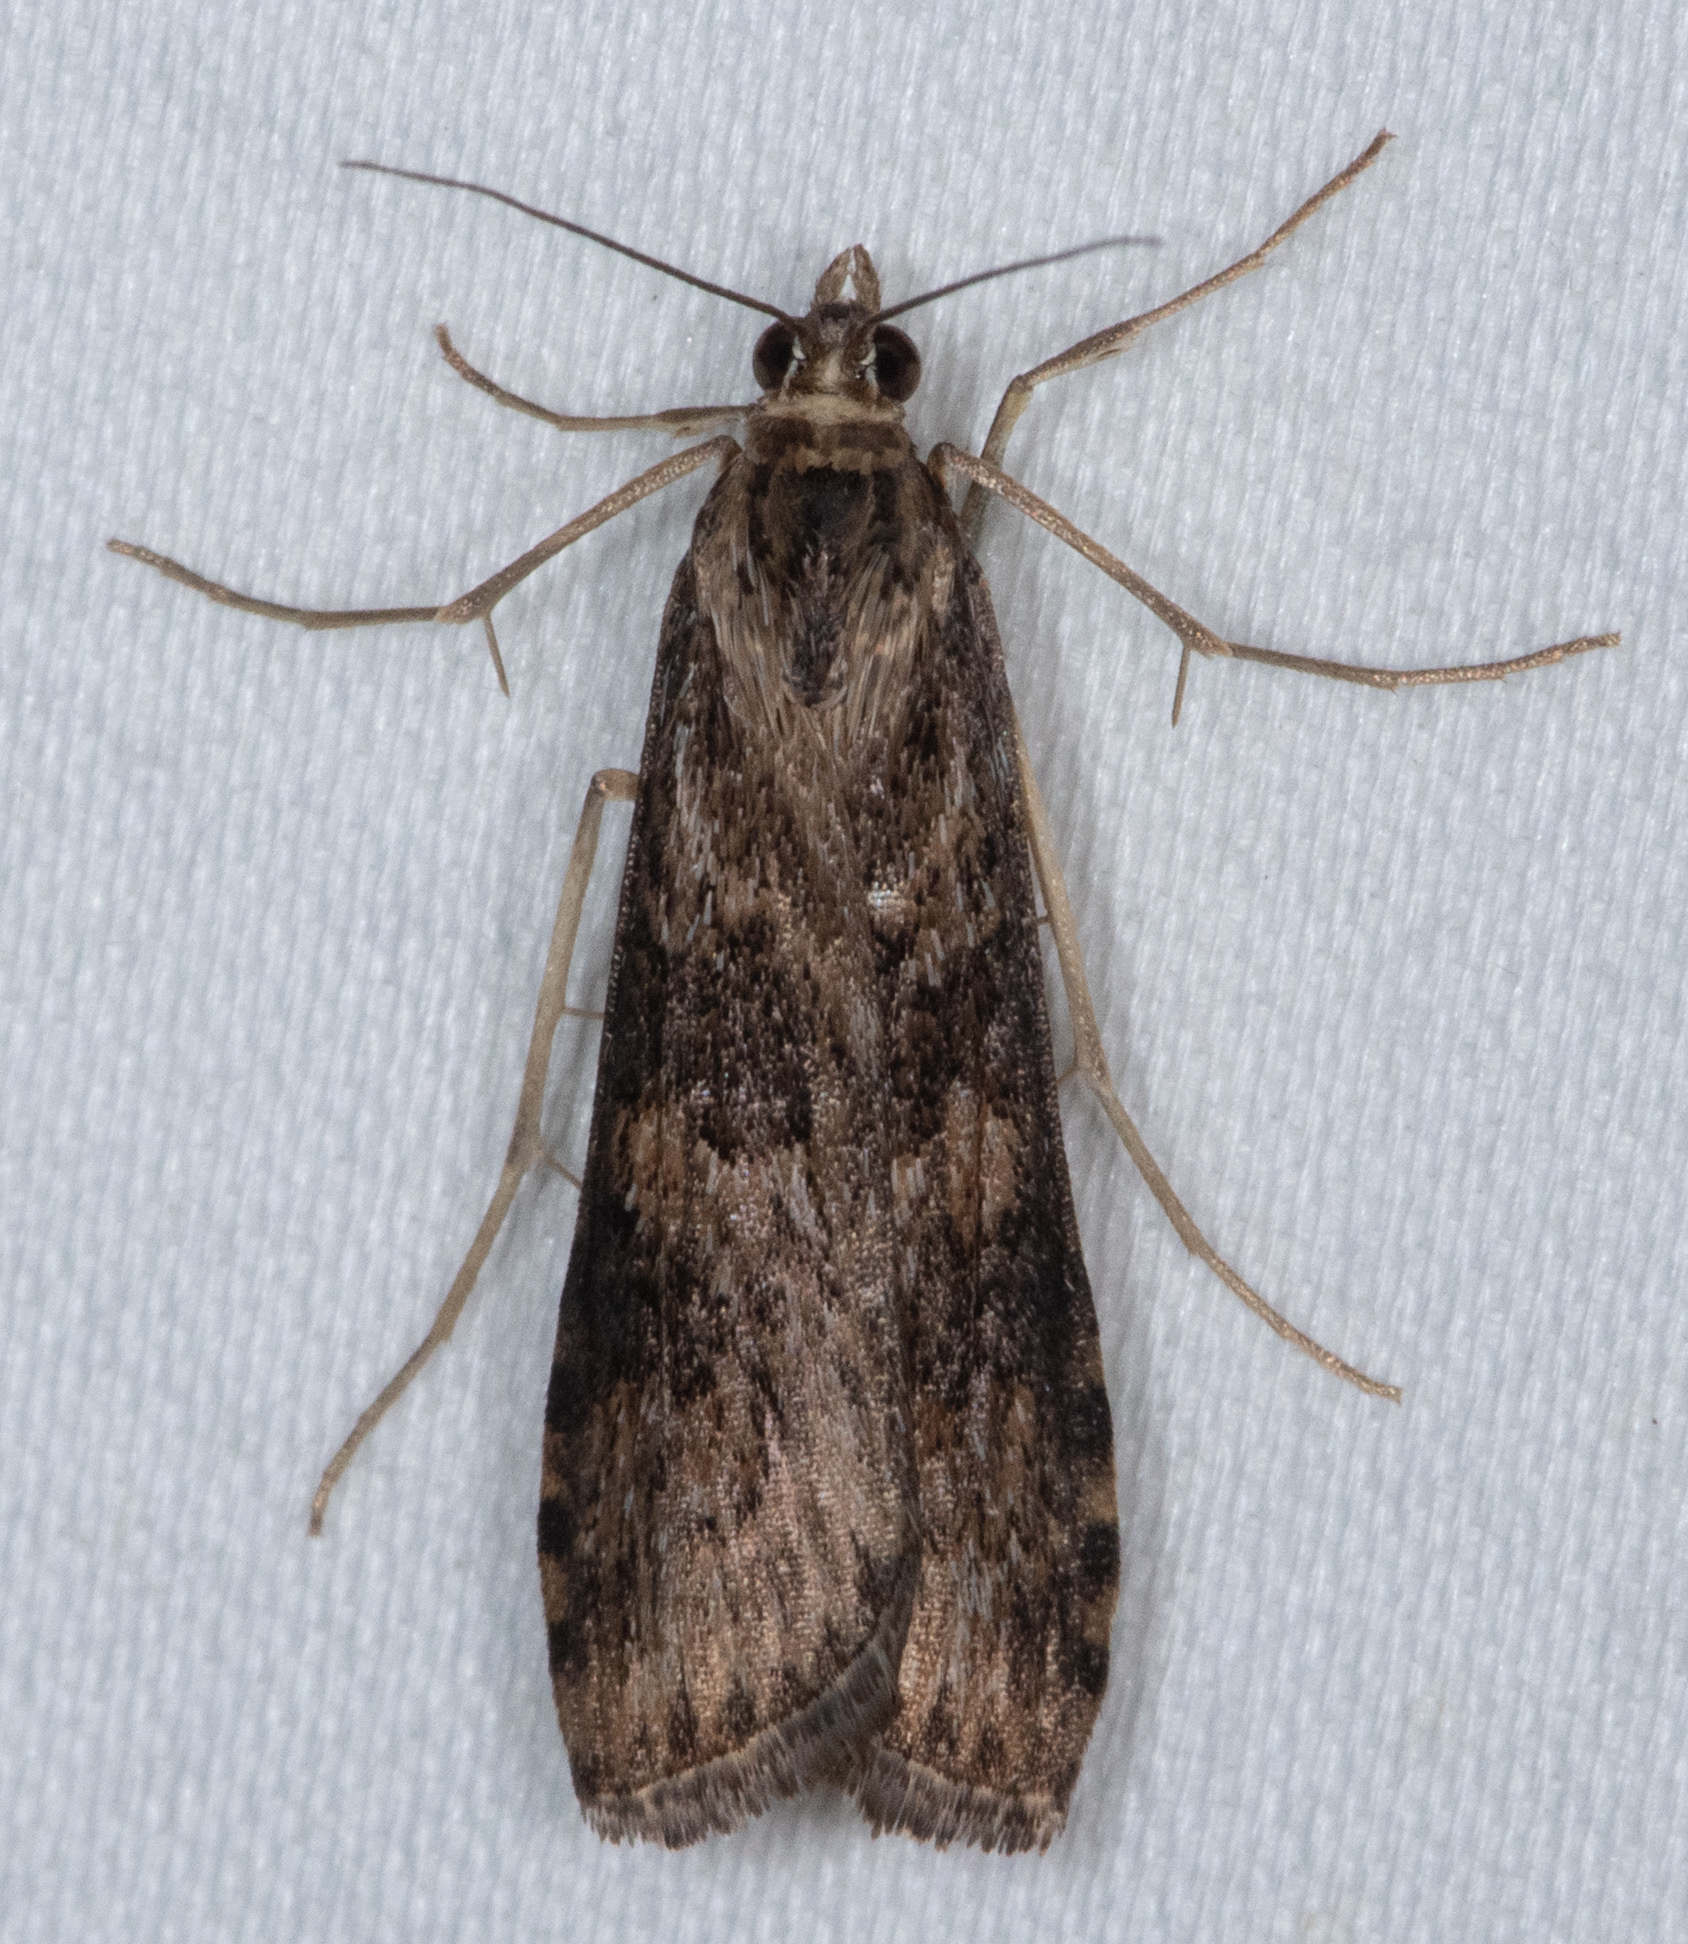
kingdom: Animalia
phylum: Arthropoda
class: Insecta
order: Lepidoptera
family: Crambidae
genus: Nomophila
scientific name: Nomophila nearctica
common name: American rush veneer
